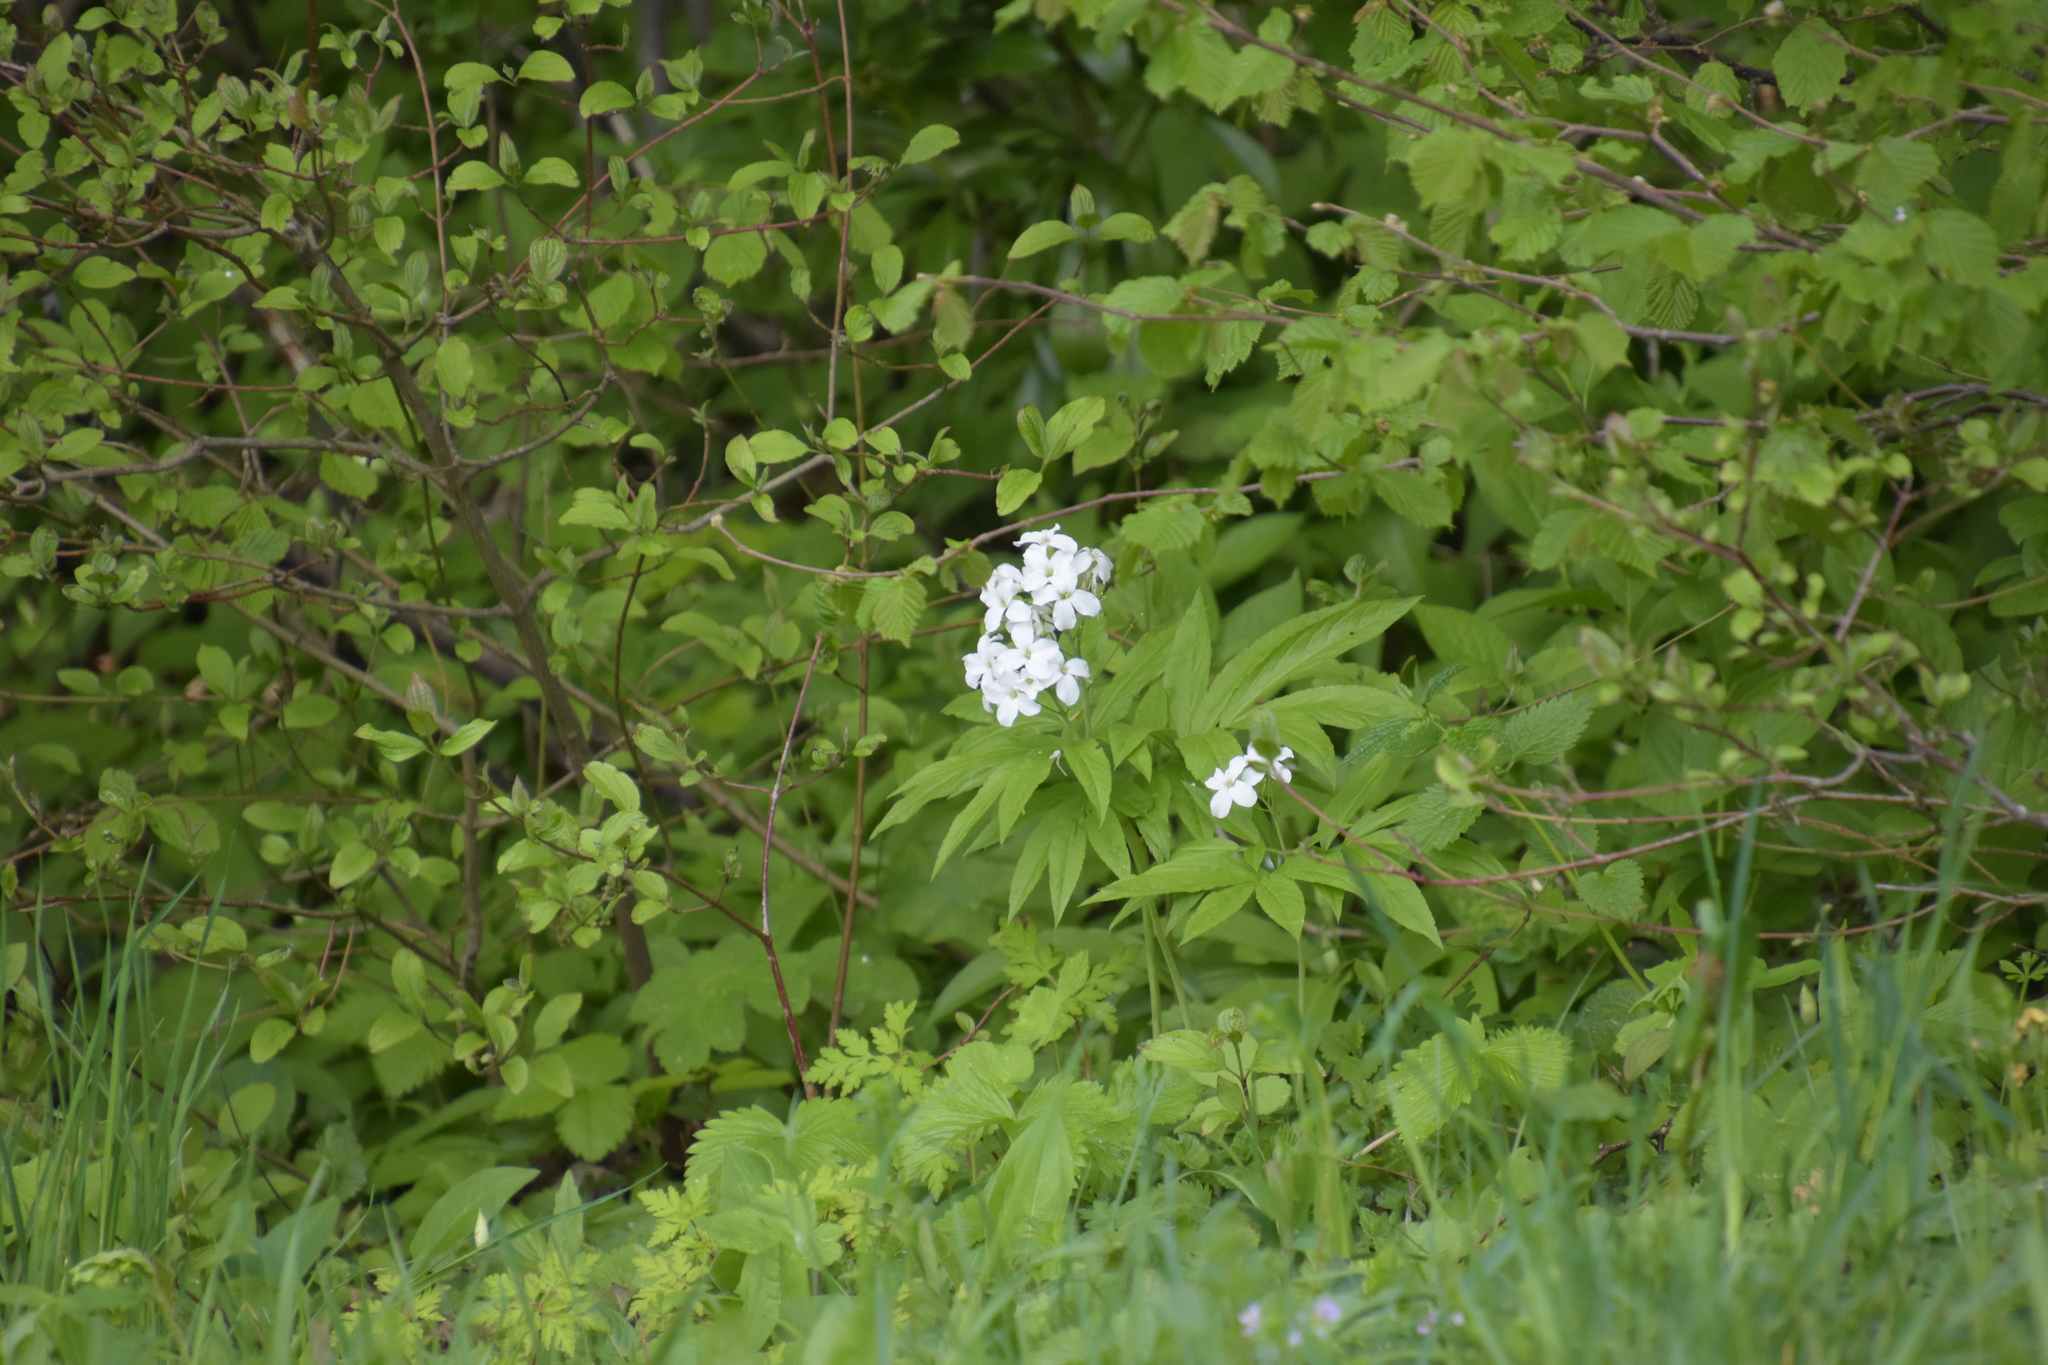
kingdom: Plantae
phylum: Tracheophyta
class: Magnoliopsida
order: Brassicales
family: Brassicaceae
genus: Cardamine
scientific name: Cardamine heptaphylla
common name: Pinnate coralroot
